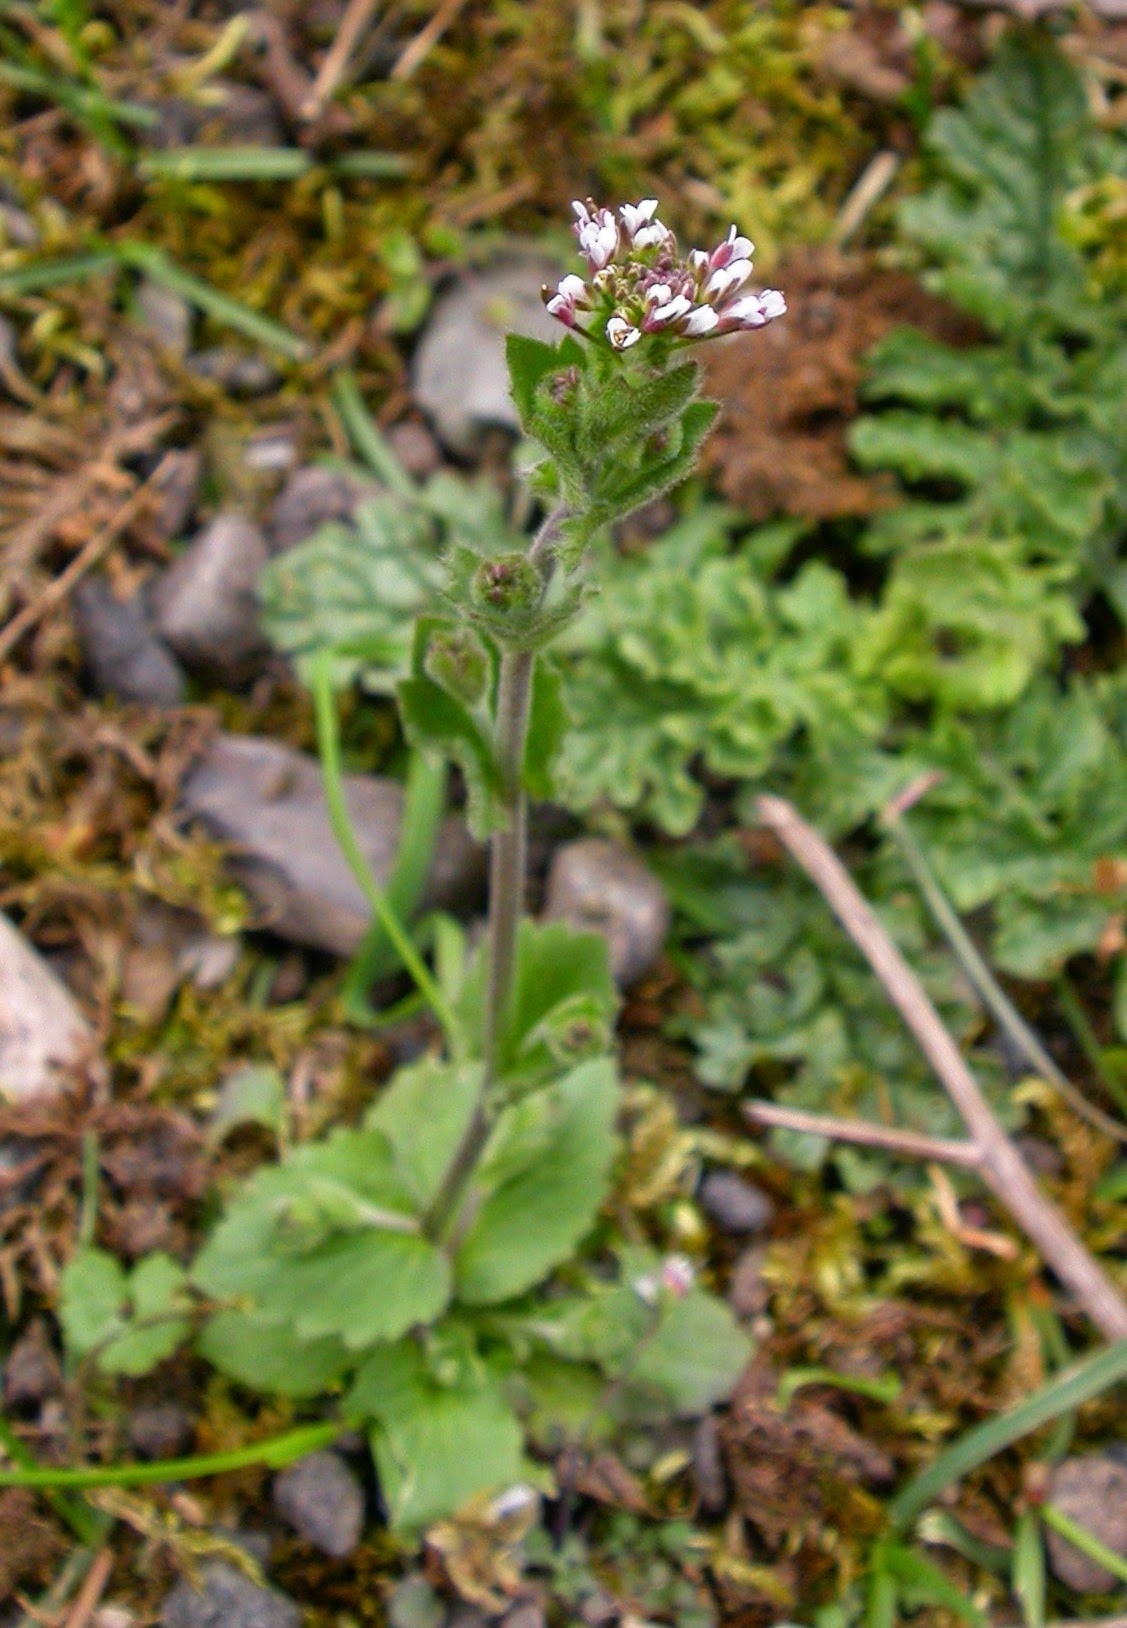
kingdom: Plantae
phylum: Tracheophyta
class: Magnoliopsida
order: Brassicales
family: Brassicaceae
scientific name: Brassicaceae
